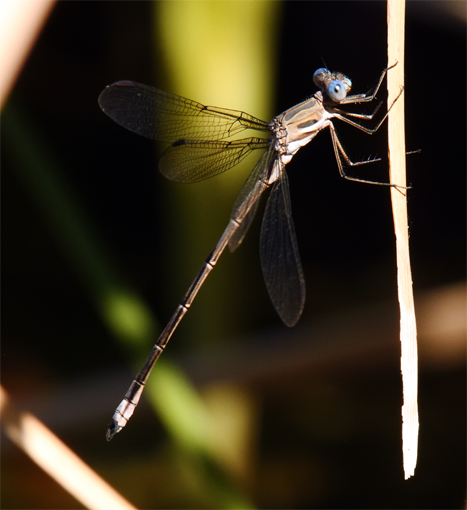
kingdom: Animalia
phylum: Arthropoda
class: Insecta
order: Odonata
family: Lestidae
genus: Archilestes
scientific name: Archilestes californicus
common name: California spreadwing
